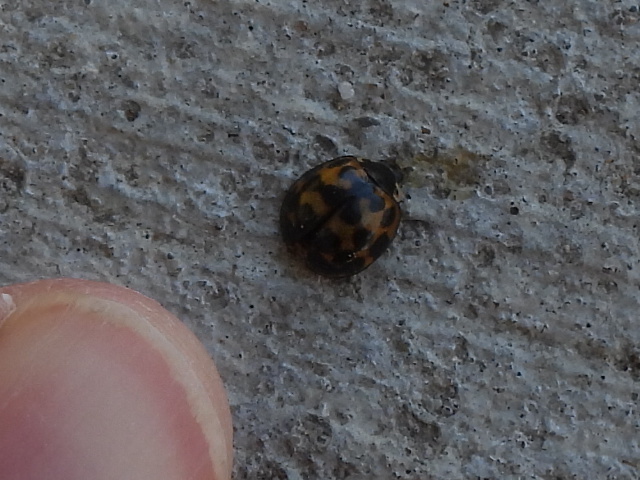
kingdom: Animalia
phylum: Arthropoda
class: Insecta
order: Coleoptera
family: Coccinellidae
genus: Harmonia
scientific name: Harmonia axyridis
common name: Harlequin ladybird
